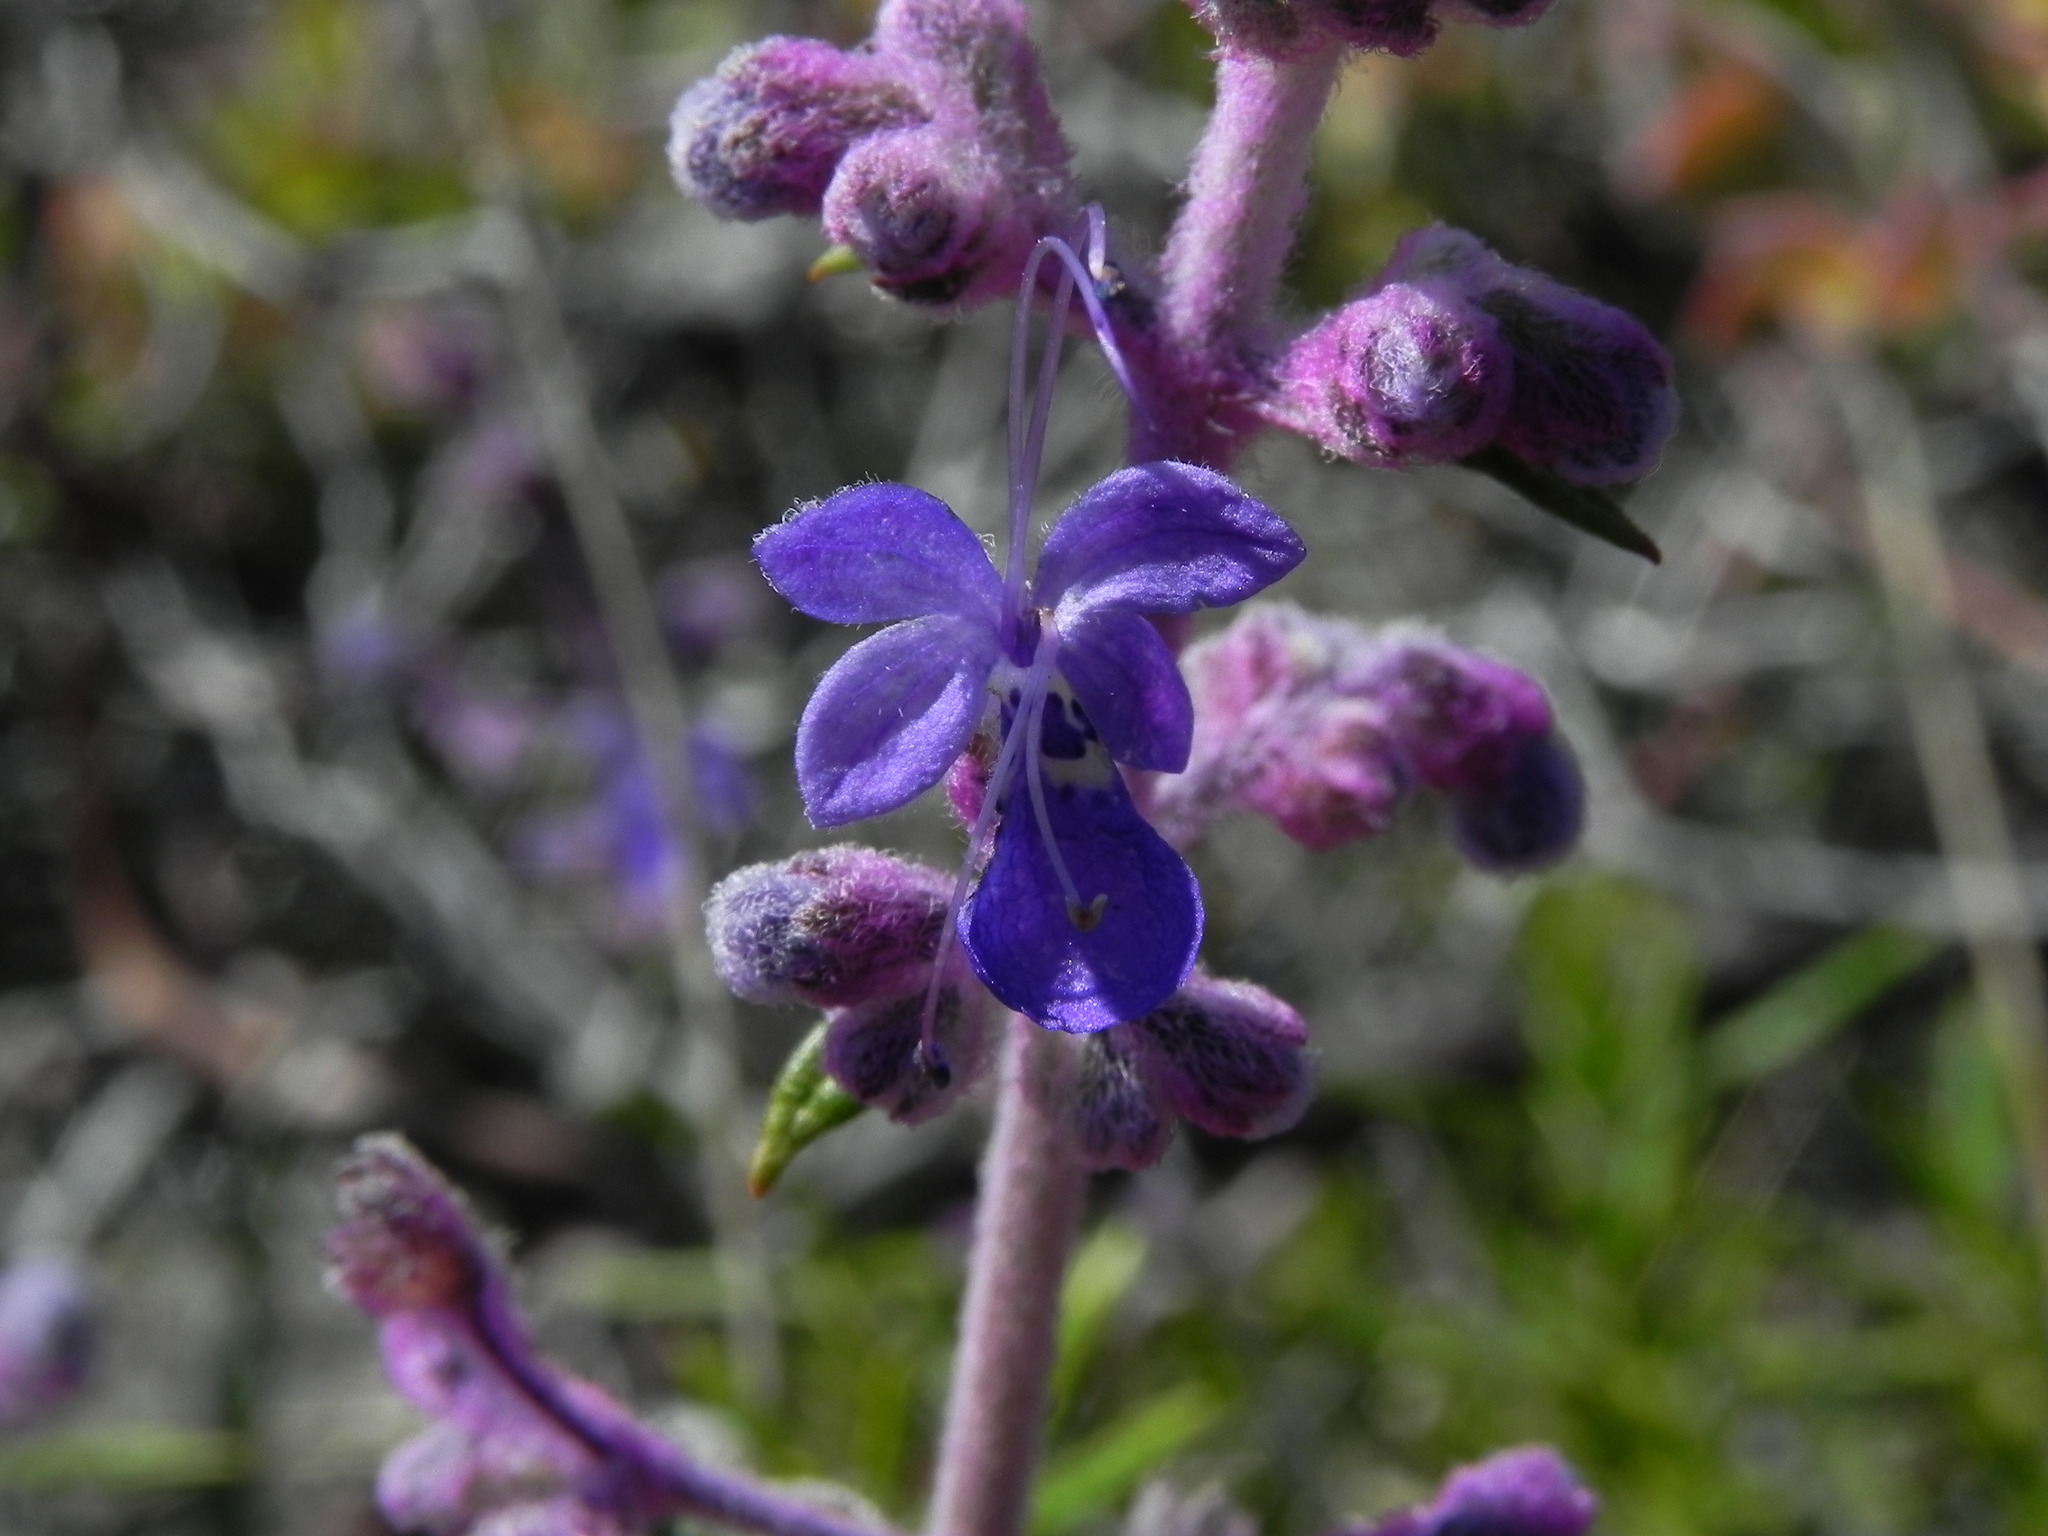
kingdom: Plantae
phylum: Tracheophyta
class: Magnoliopsida
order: Lamiales
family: Lamiaceae
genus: Trichostema
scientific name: Trichostema parishii
